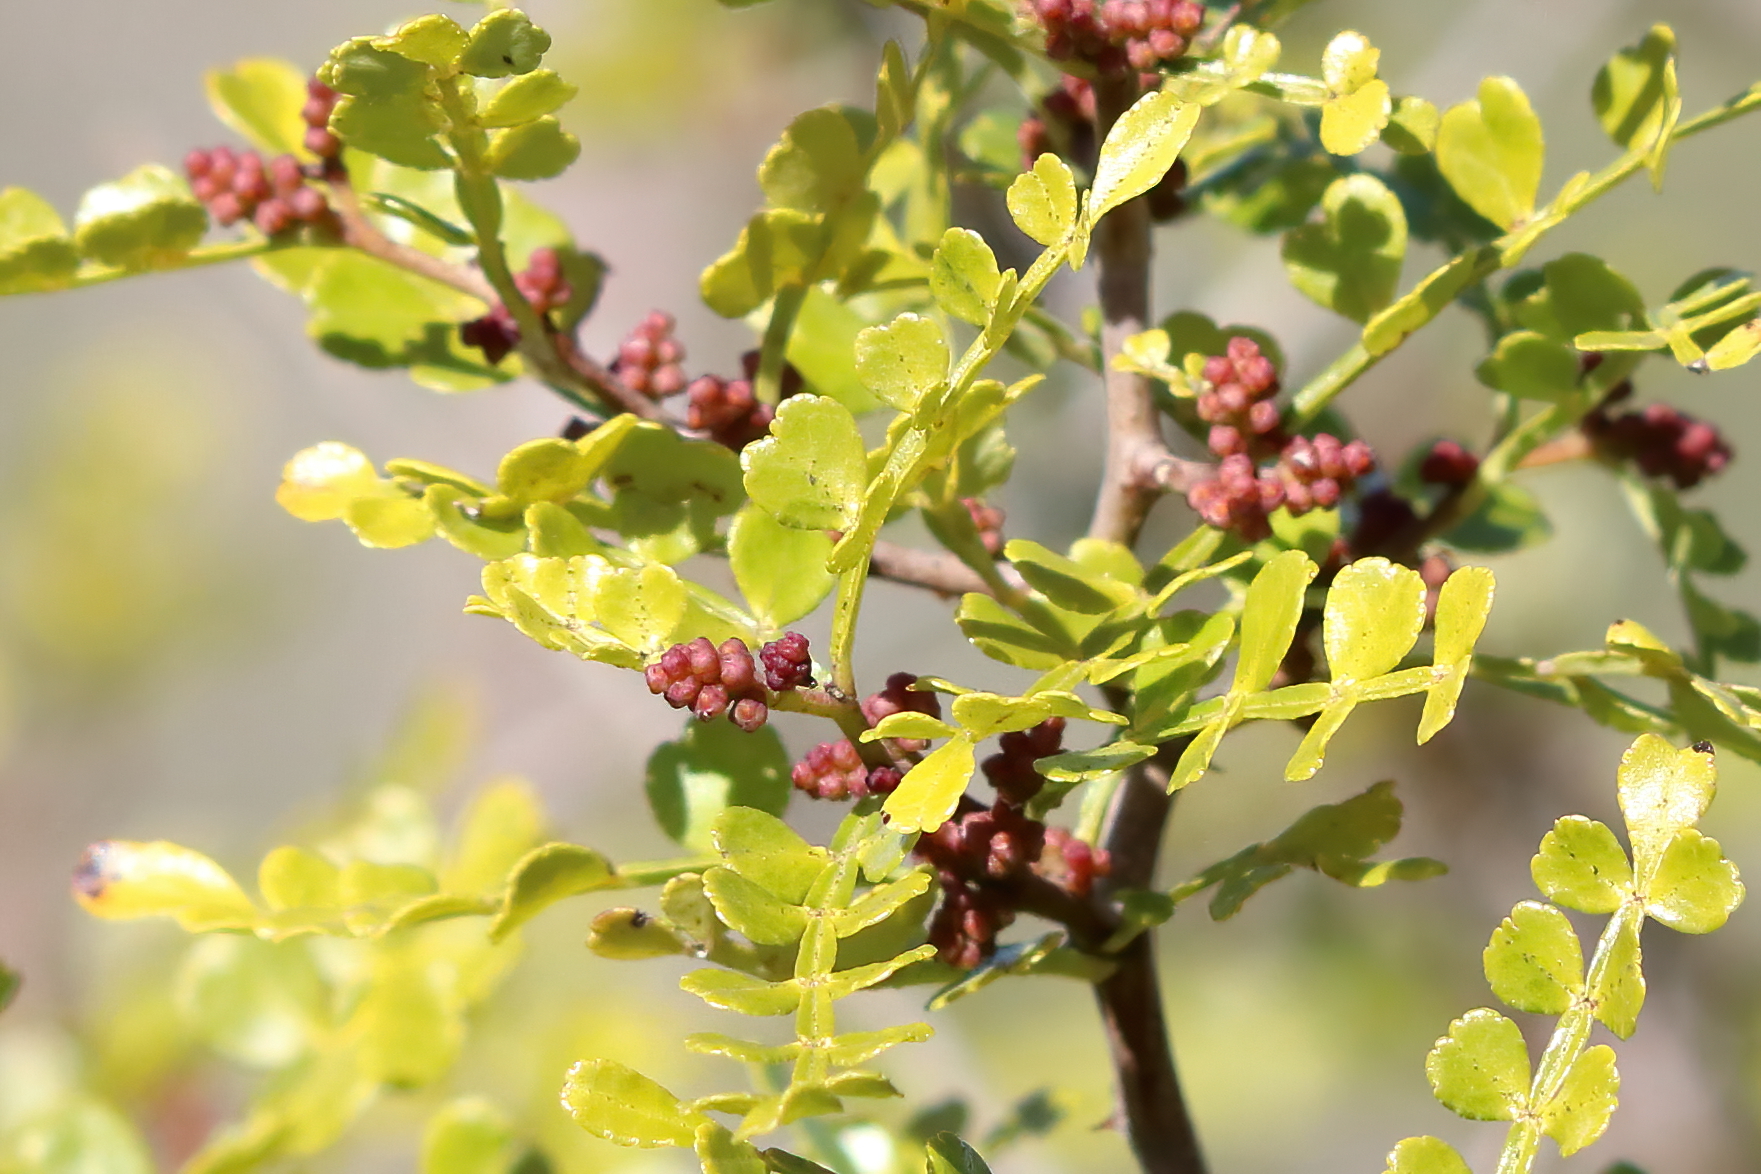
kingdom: Plantae
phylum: Tracheophyta
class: Magnoliopsida
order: Sapindales
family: Rutaceae
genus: Zanthoxylum
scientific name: Zanthoxylum fagara
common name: Lime prickly-ash
